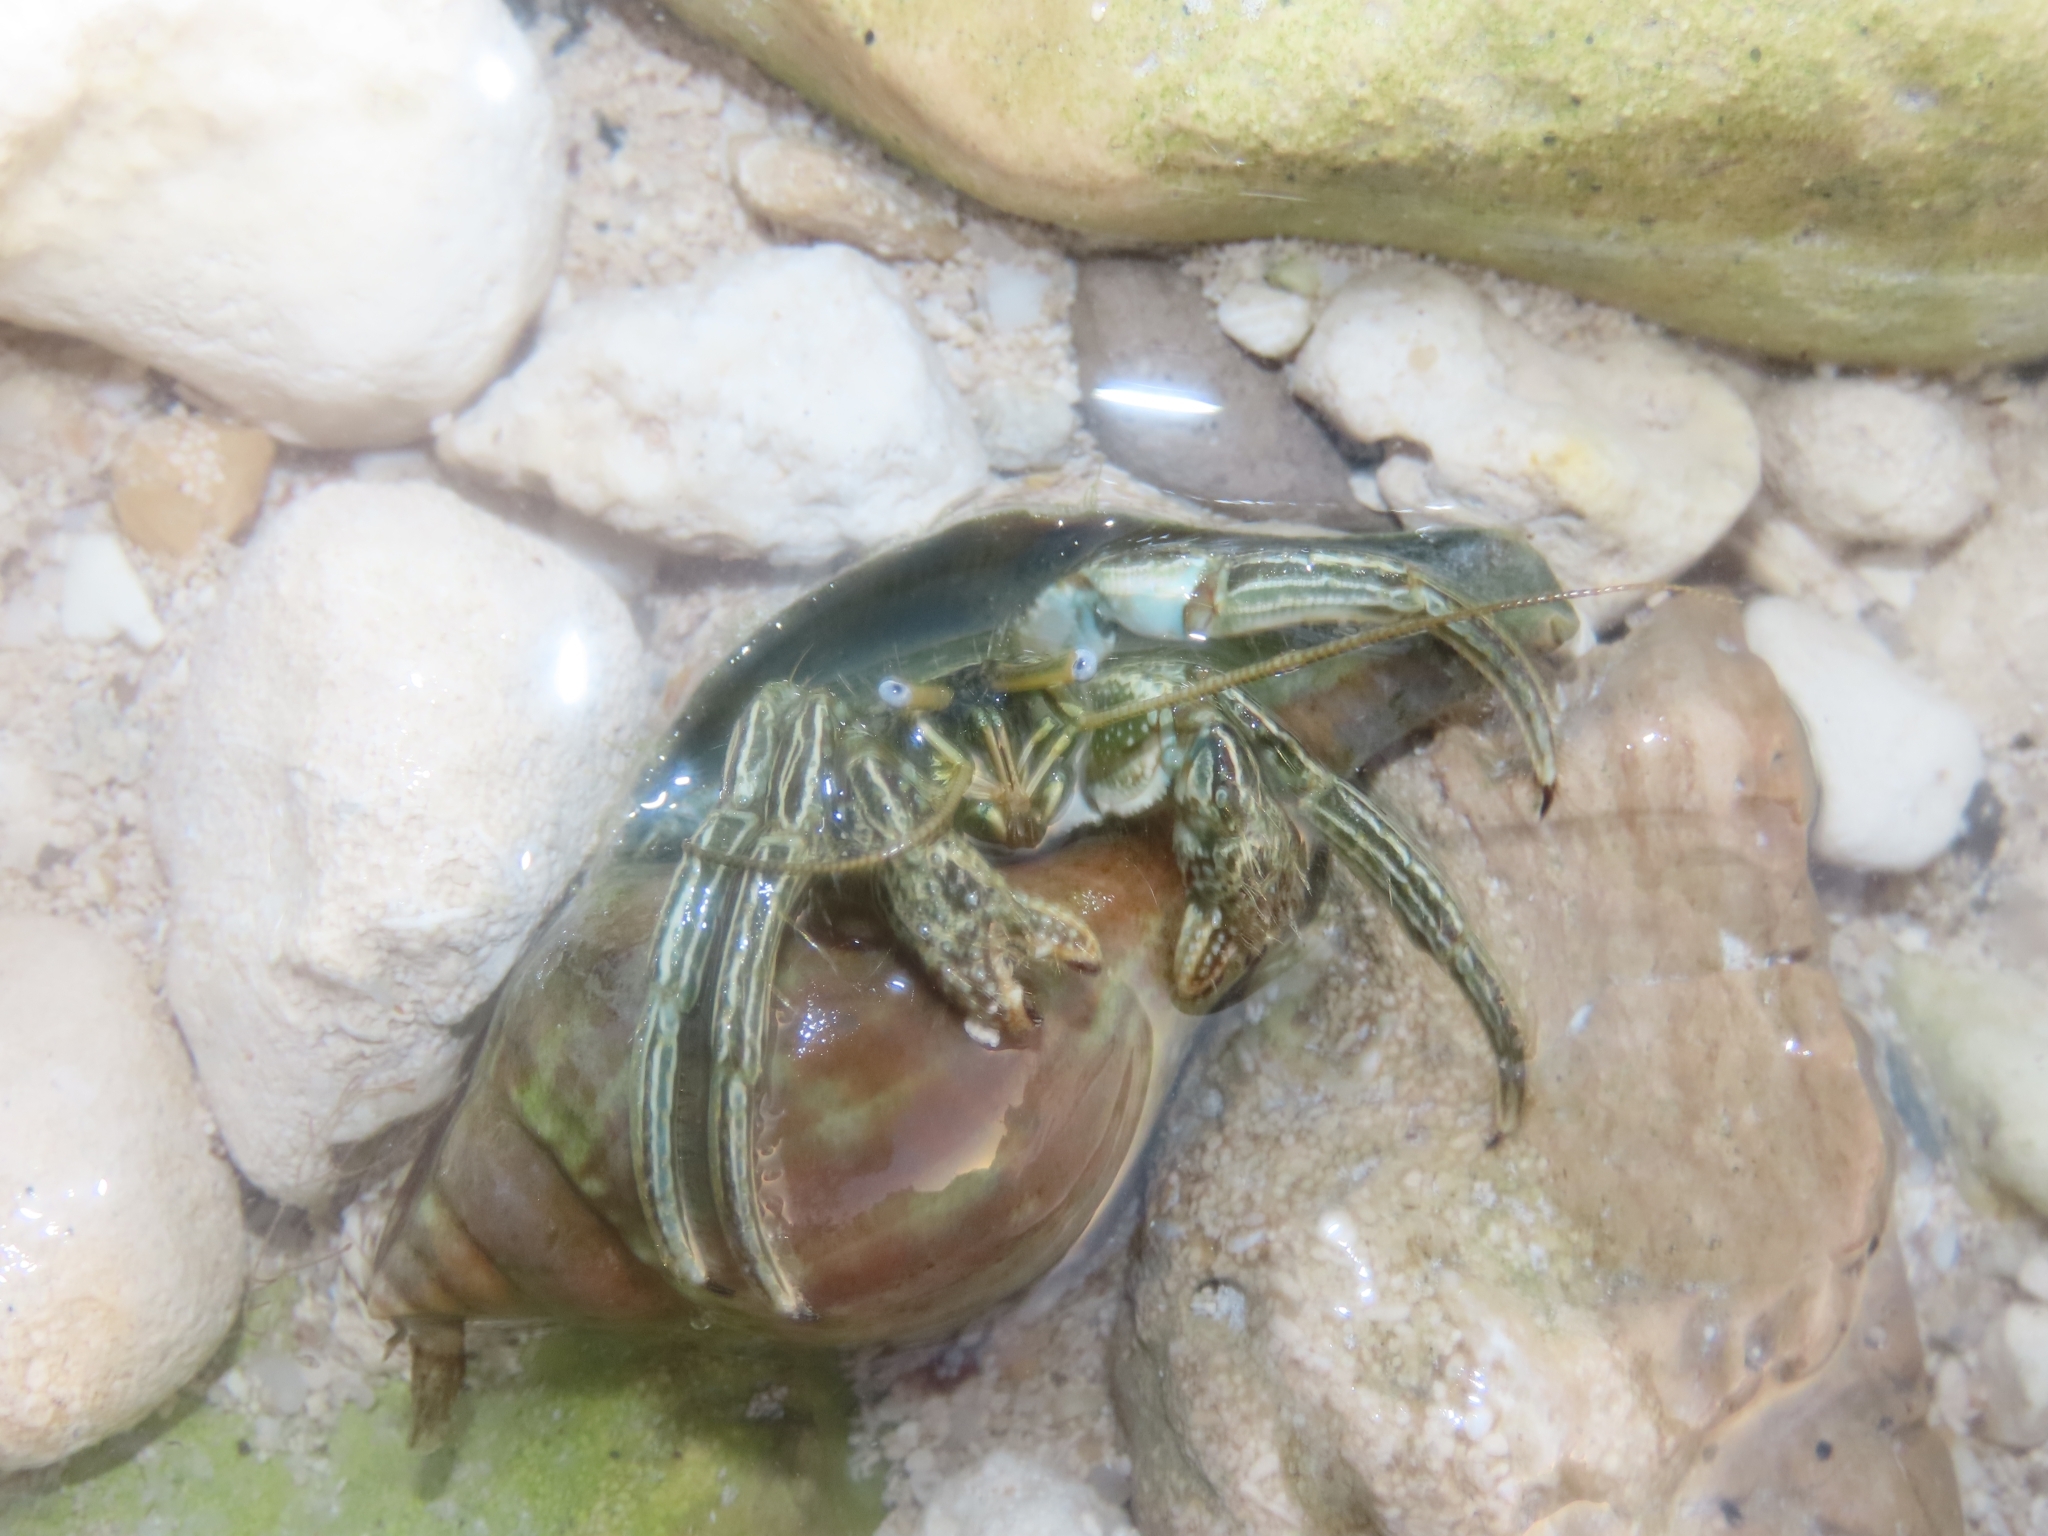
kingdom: Animalia
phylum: Arthropoda
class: Malacostraca
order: Decapoda
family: Diogenidae
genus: Clibanarius
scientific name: Clibanarius vittatus
